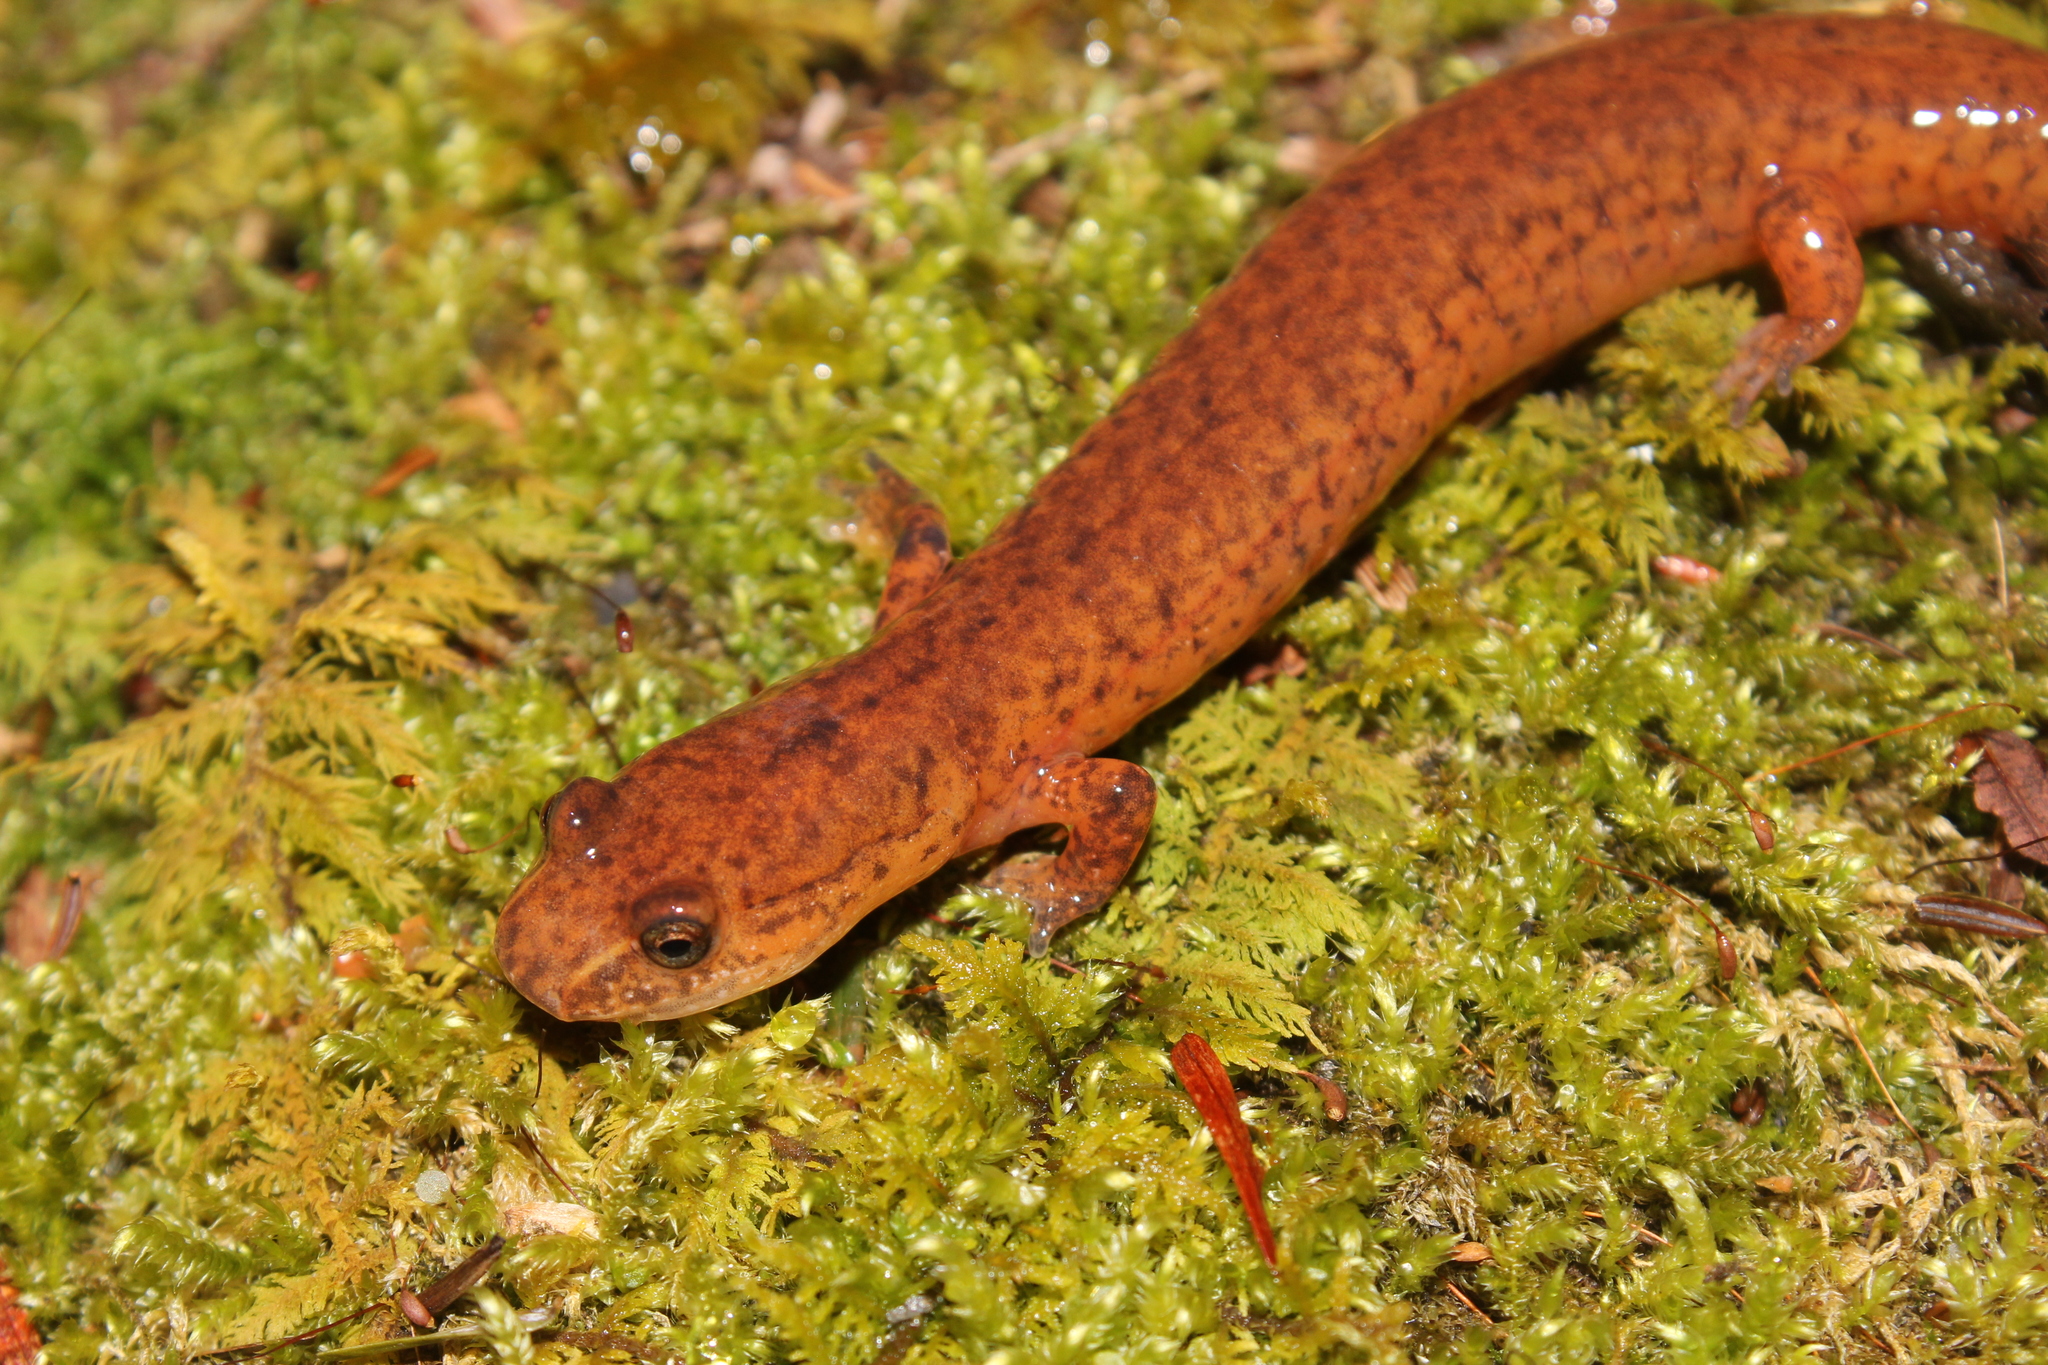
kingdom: Animalia
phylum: Chordata
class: Amphibia
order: Caudata
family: Plethodontidae
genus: Gyrinophilus
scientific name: Gyrinophilus porphyriticus
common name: Spring salamander
